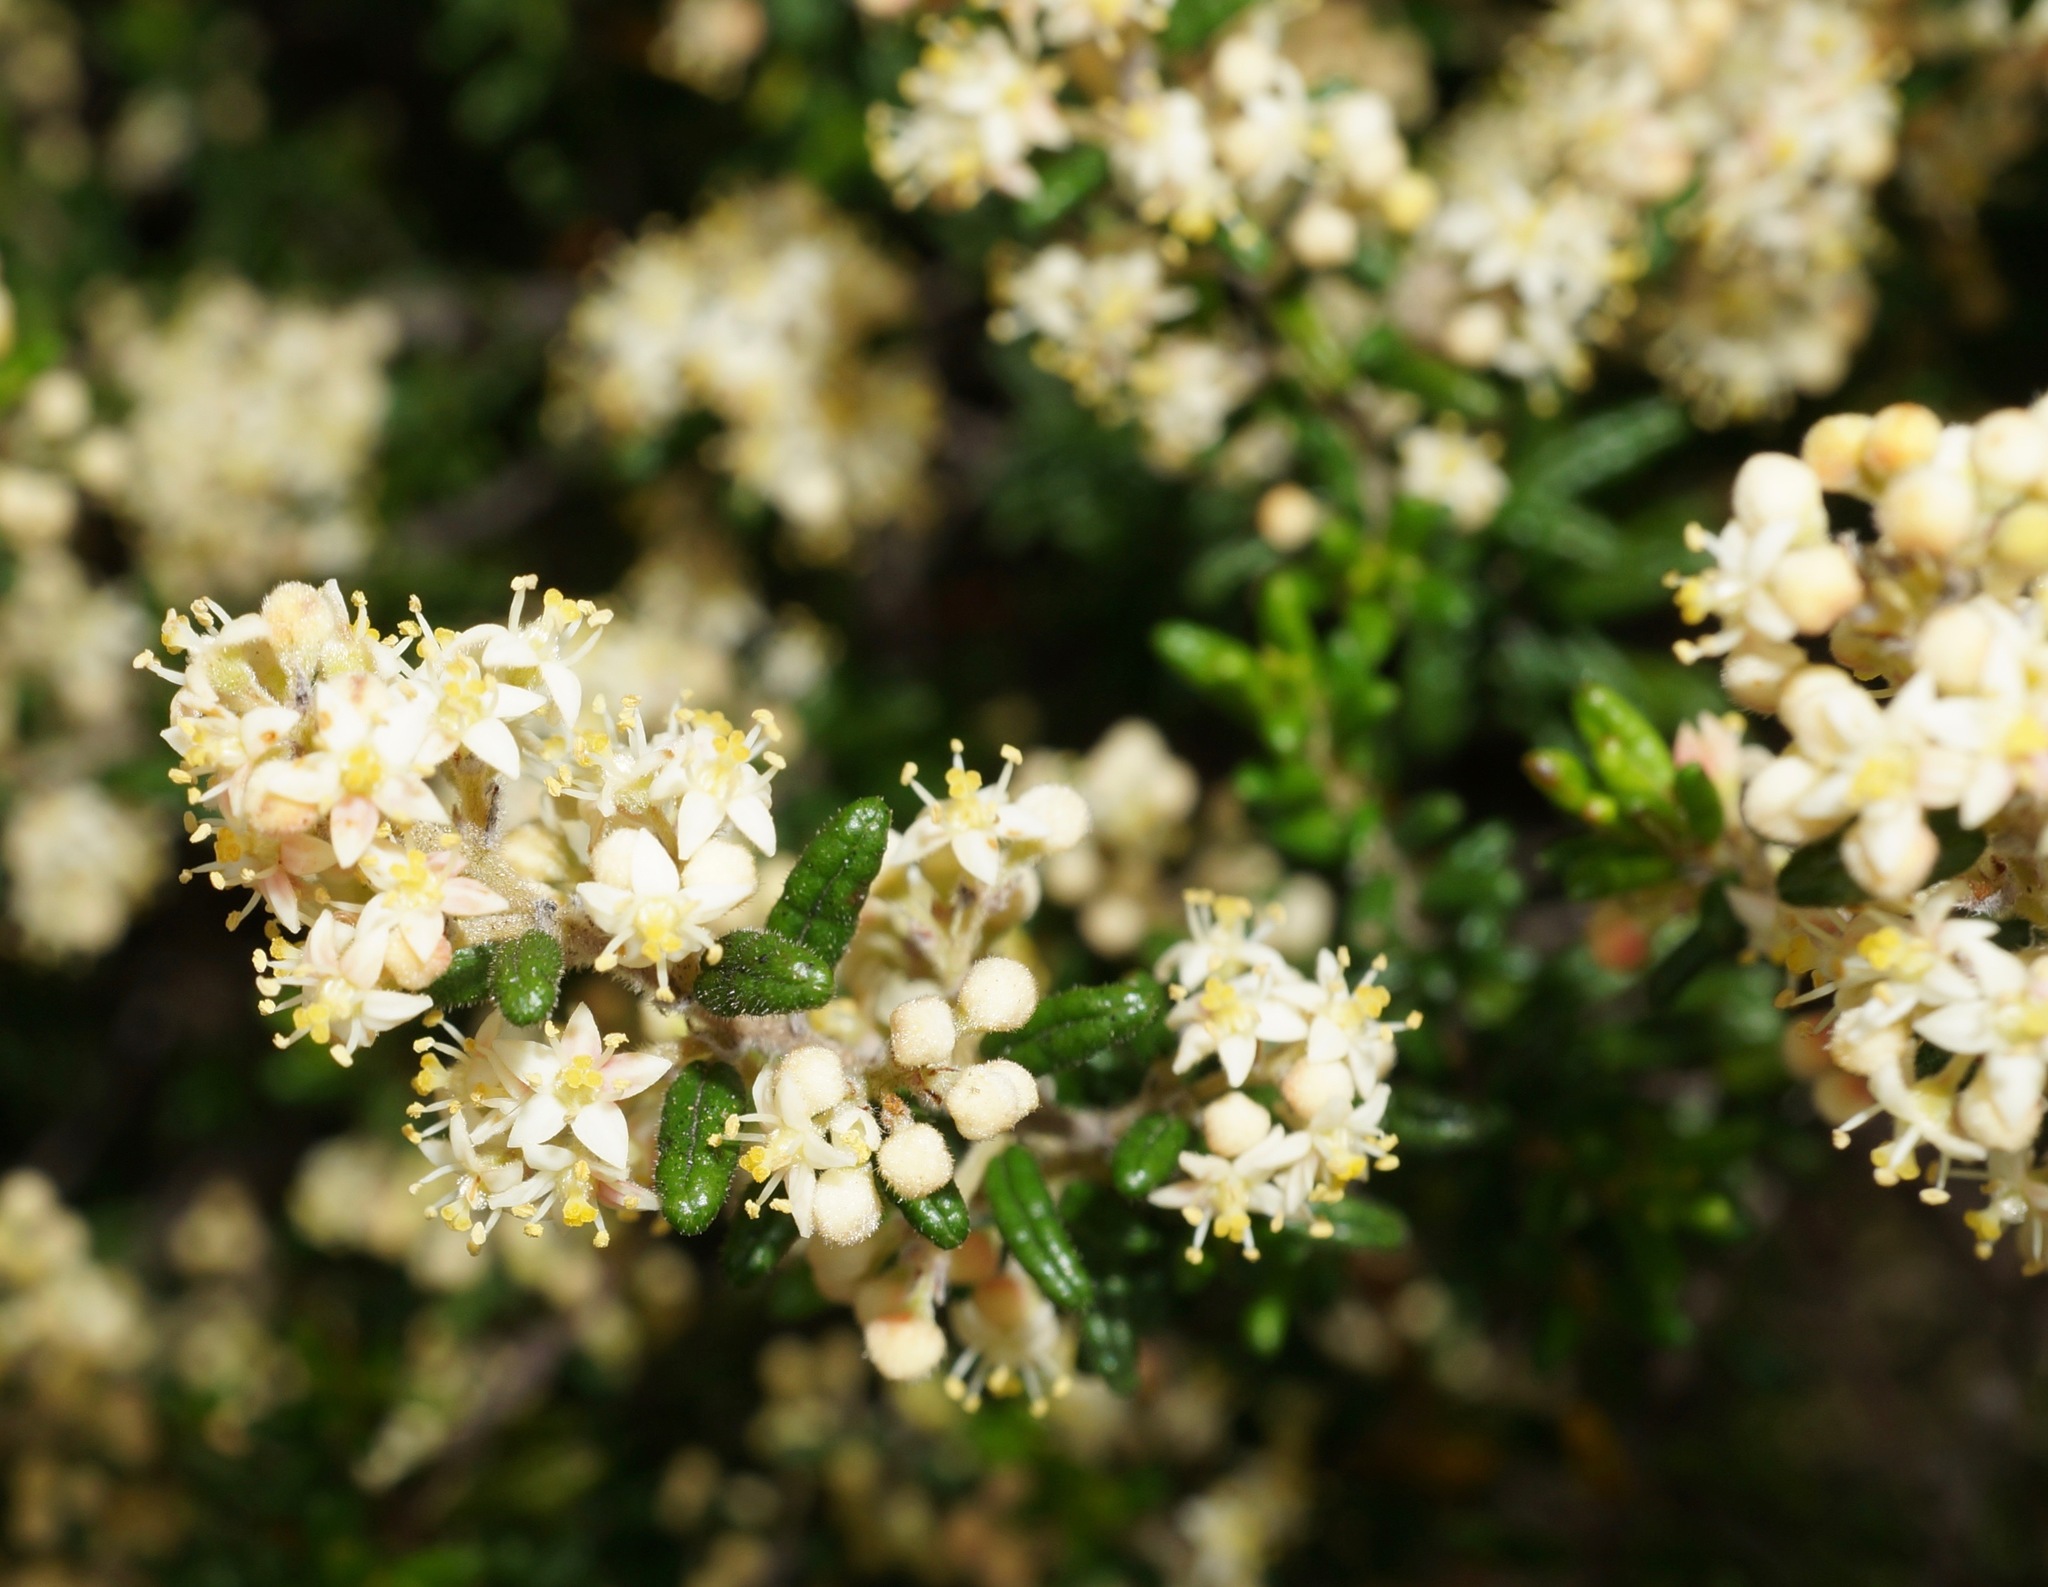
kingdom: Plantae
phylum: Tracheophyta
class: Magnoliopsida
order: Rosales
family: Rhamnaceae
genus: Pomaderris
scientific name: Pomaderris amoena
